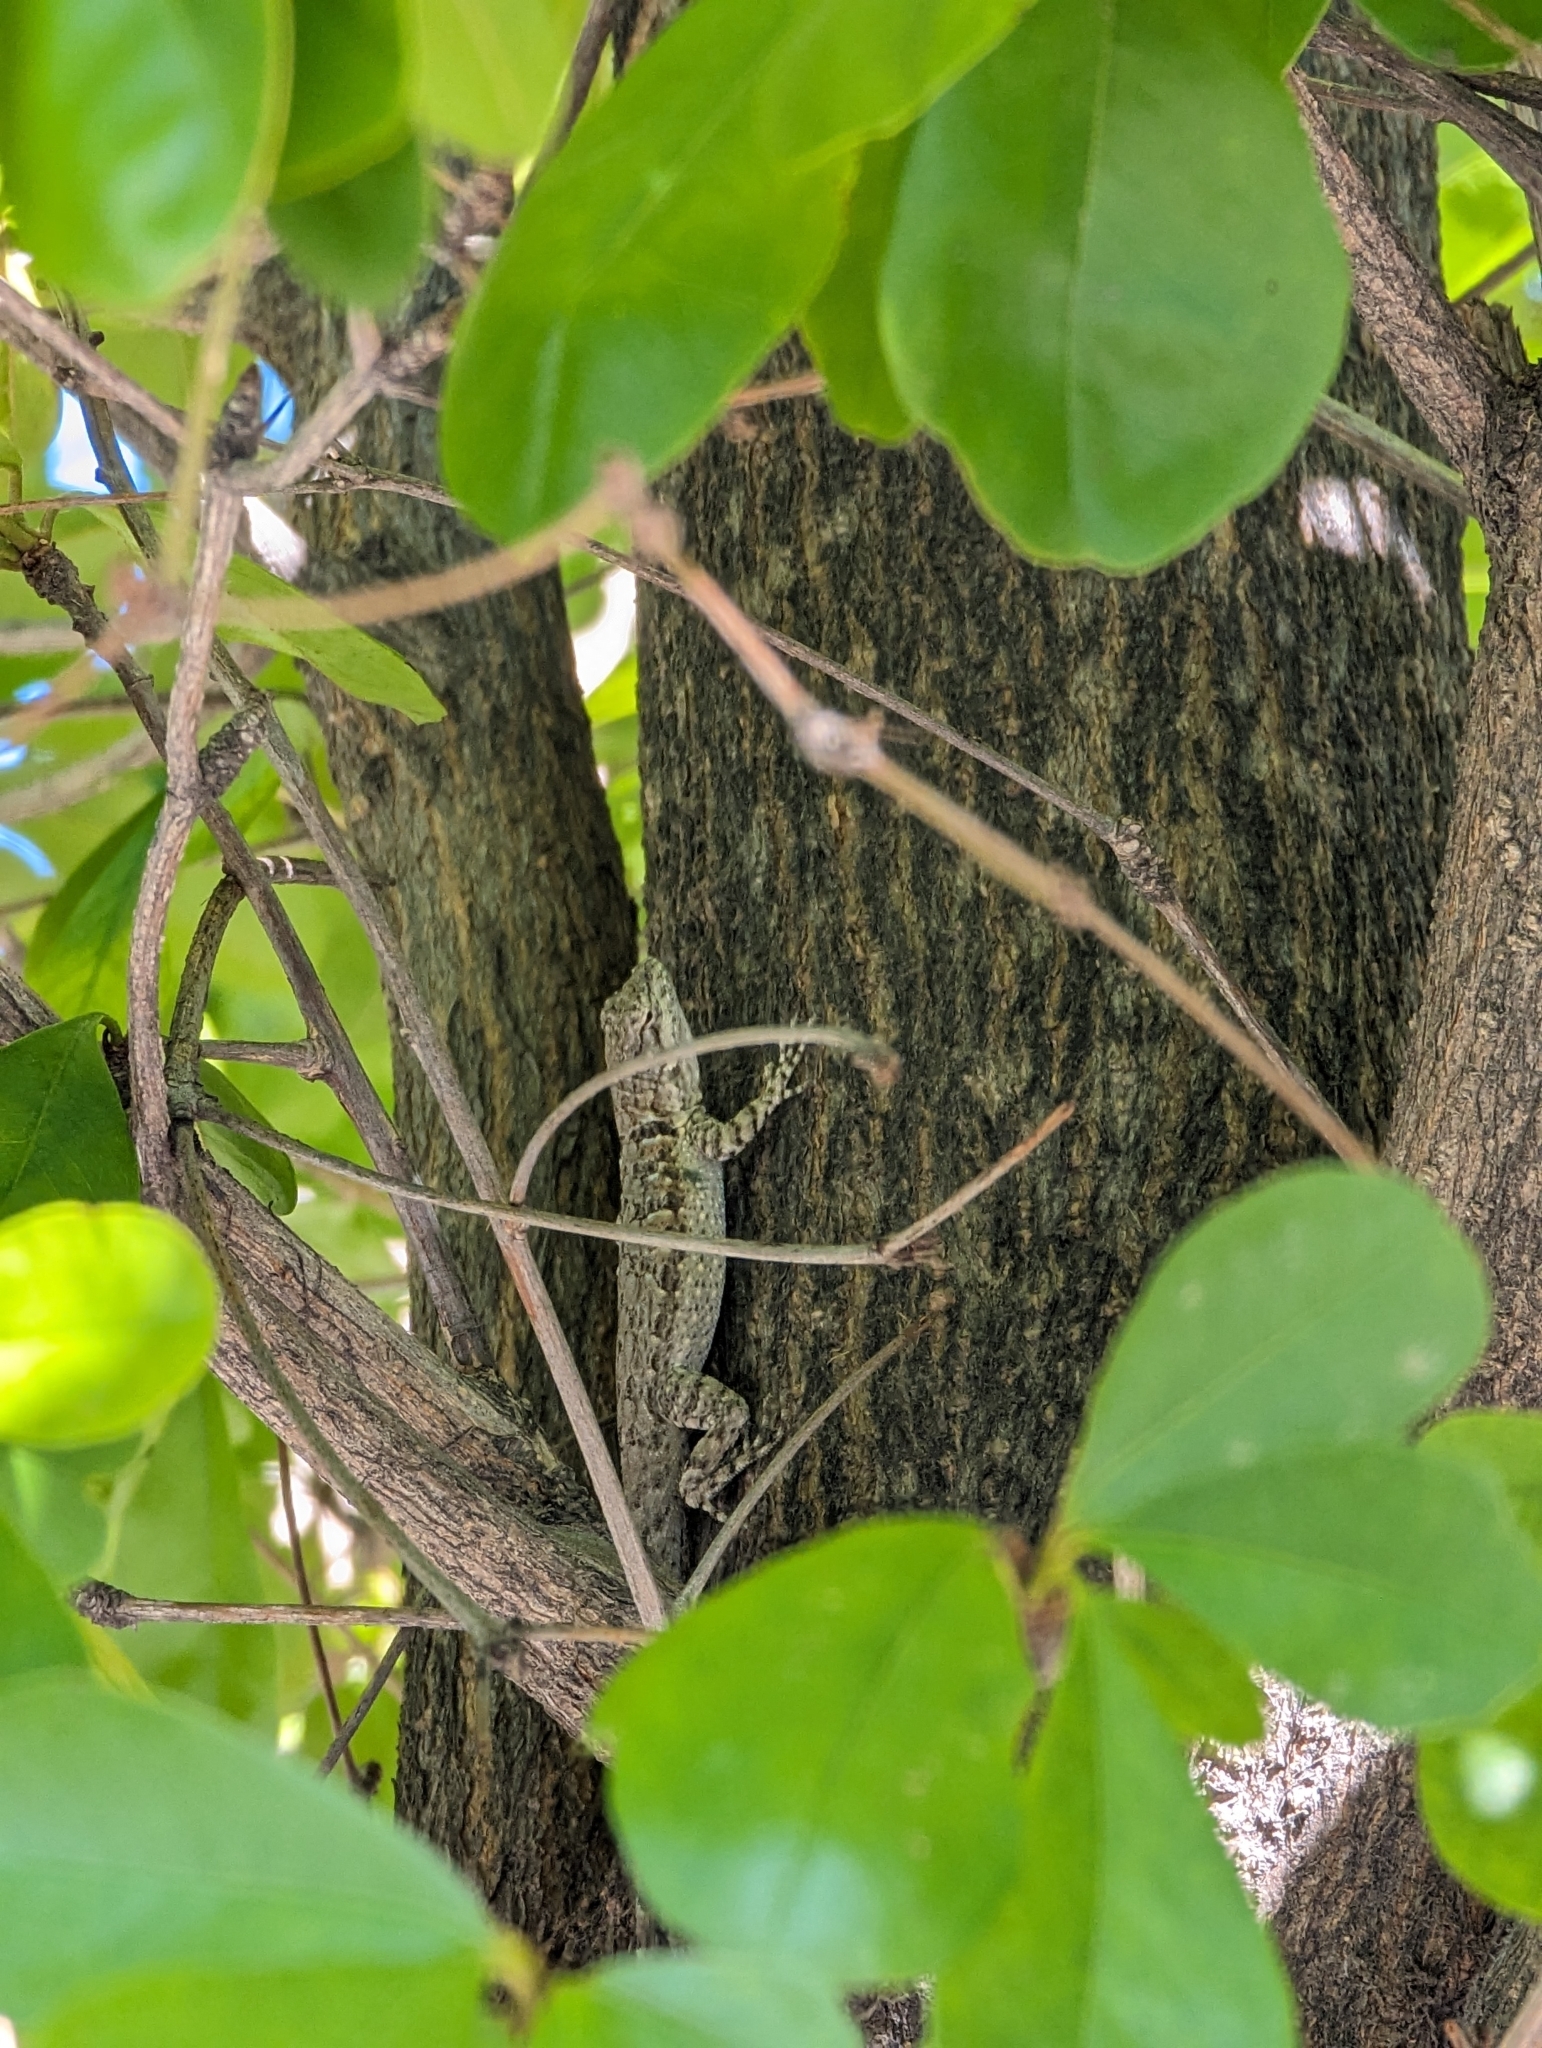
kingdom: Animalia
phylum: Chordata
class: Squamata
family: Phrynosomatidae
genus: Urosaurus
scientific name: Urosaurus nigricauda
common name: Baja california brush lizard
